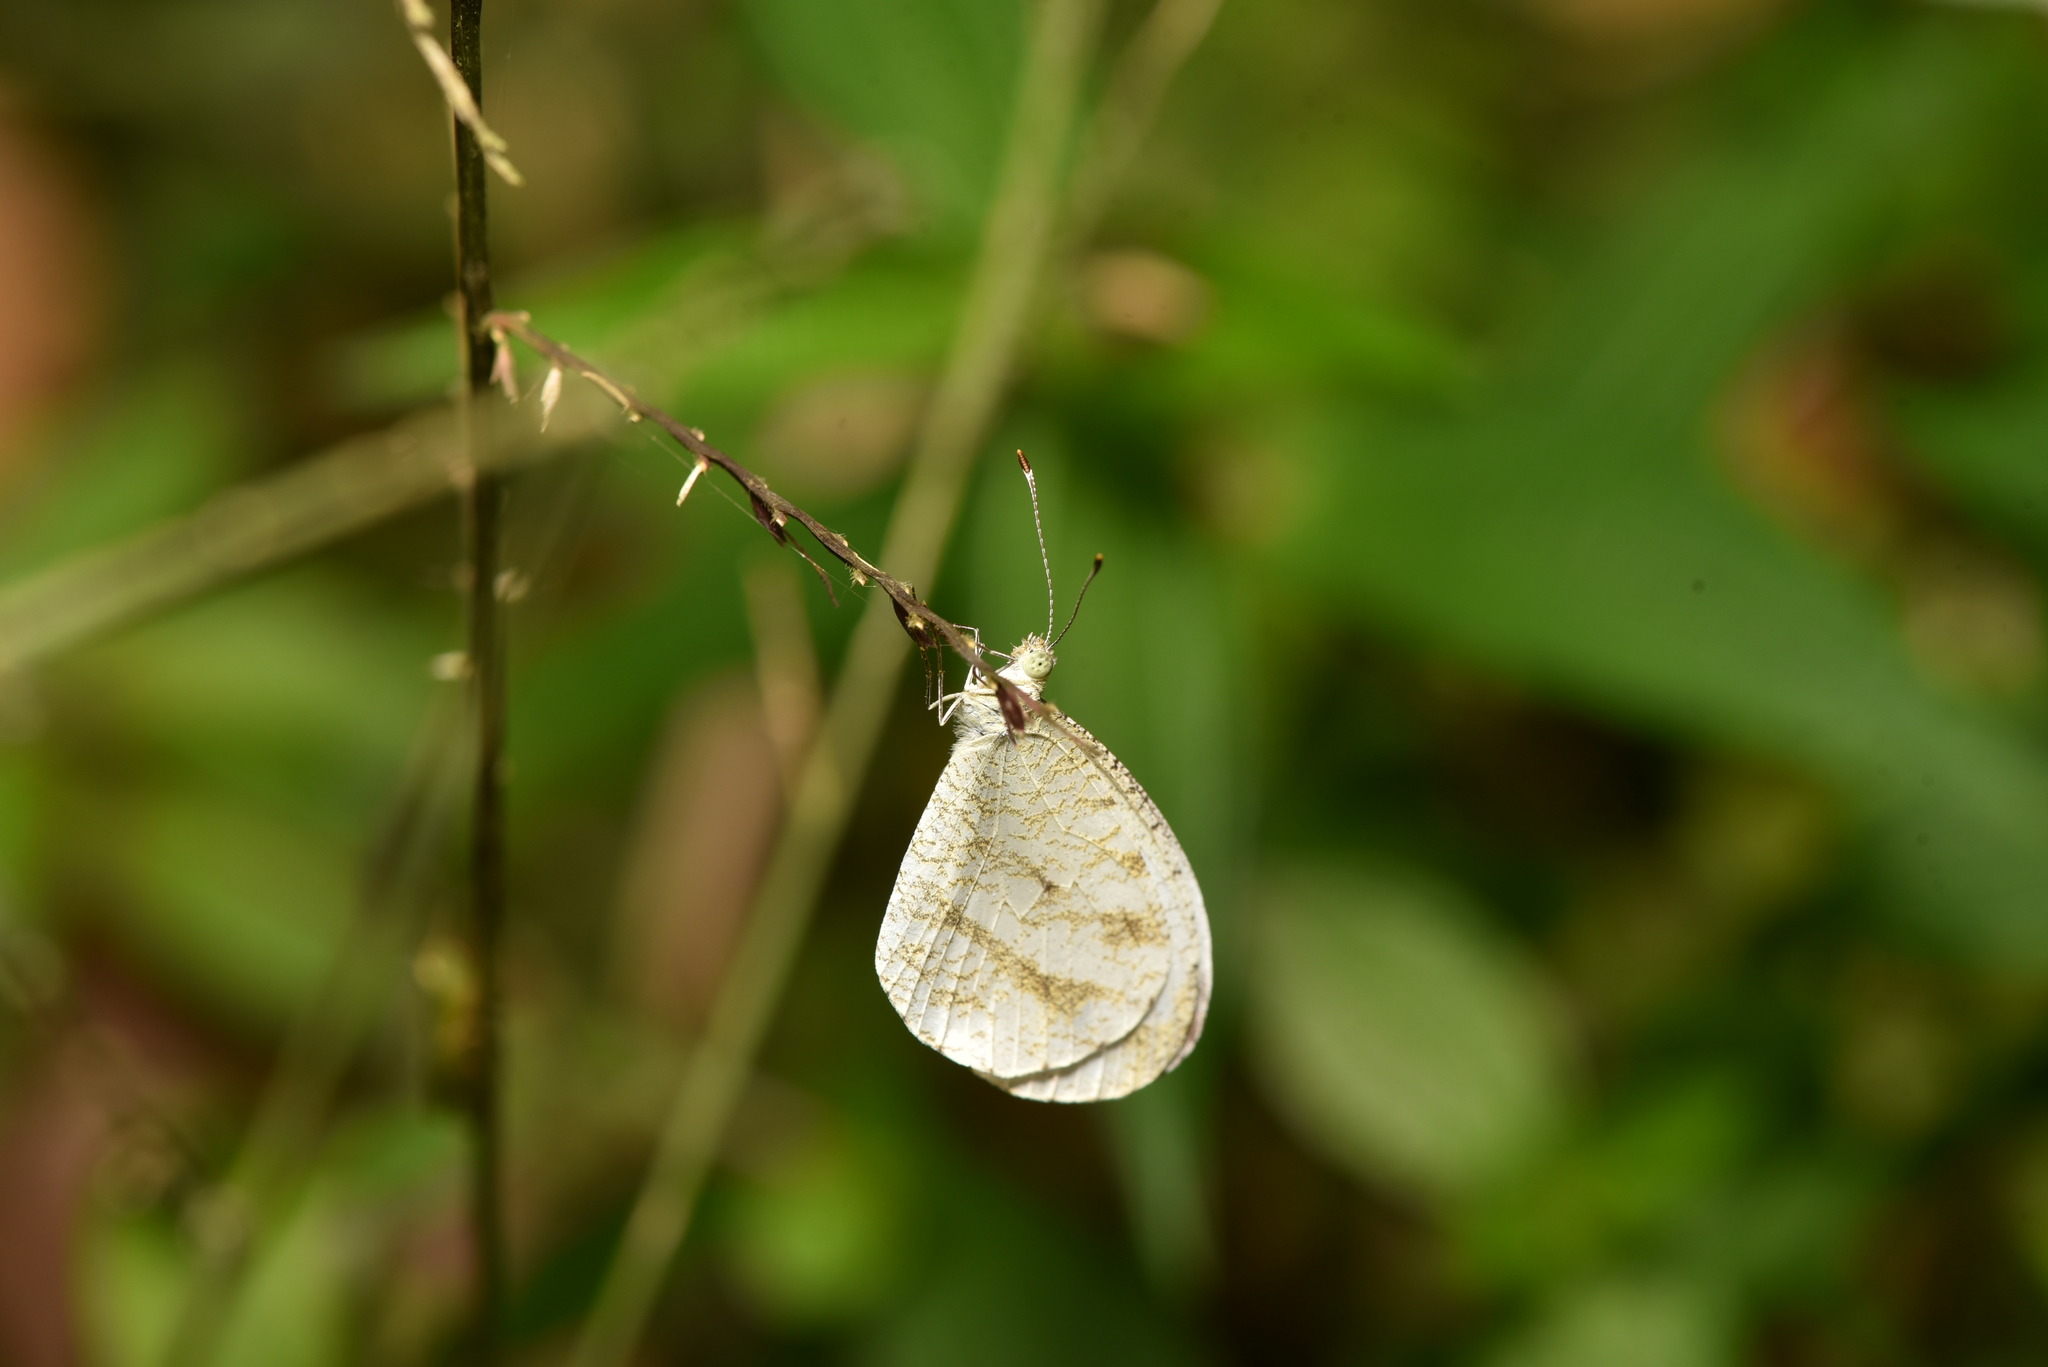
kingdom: Animalia
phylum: Arthropoda
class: Insecta
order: Lepidoptera
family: Pieridae
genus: Leptosia
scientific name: Leptosia nina
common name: Psyche
